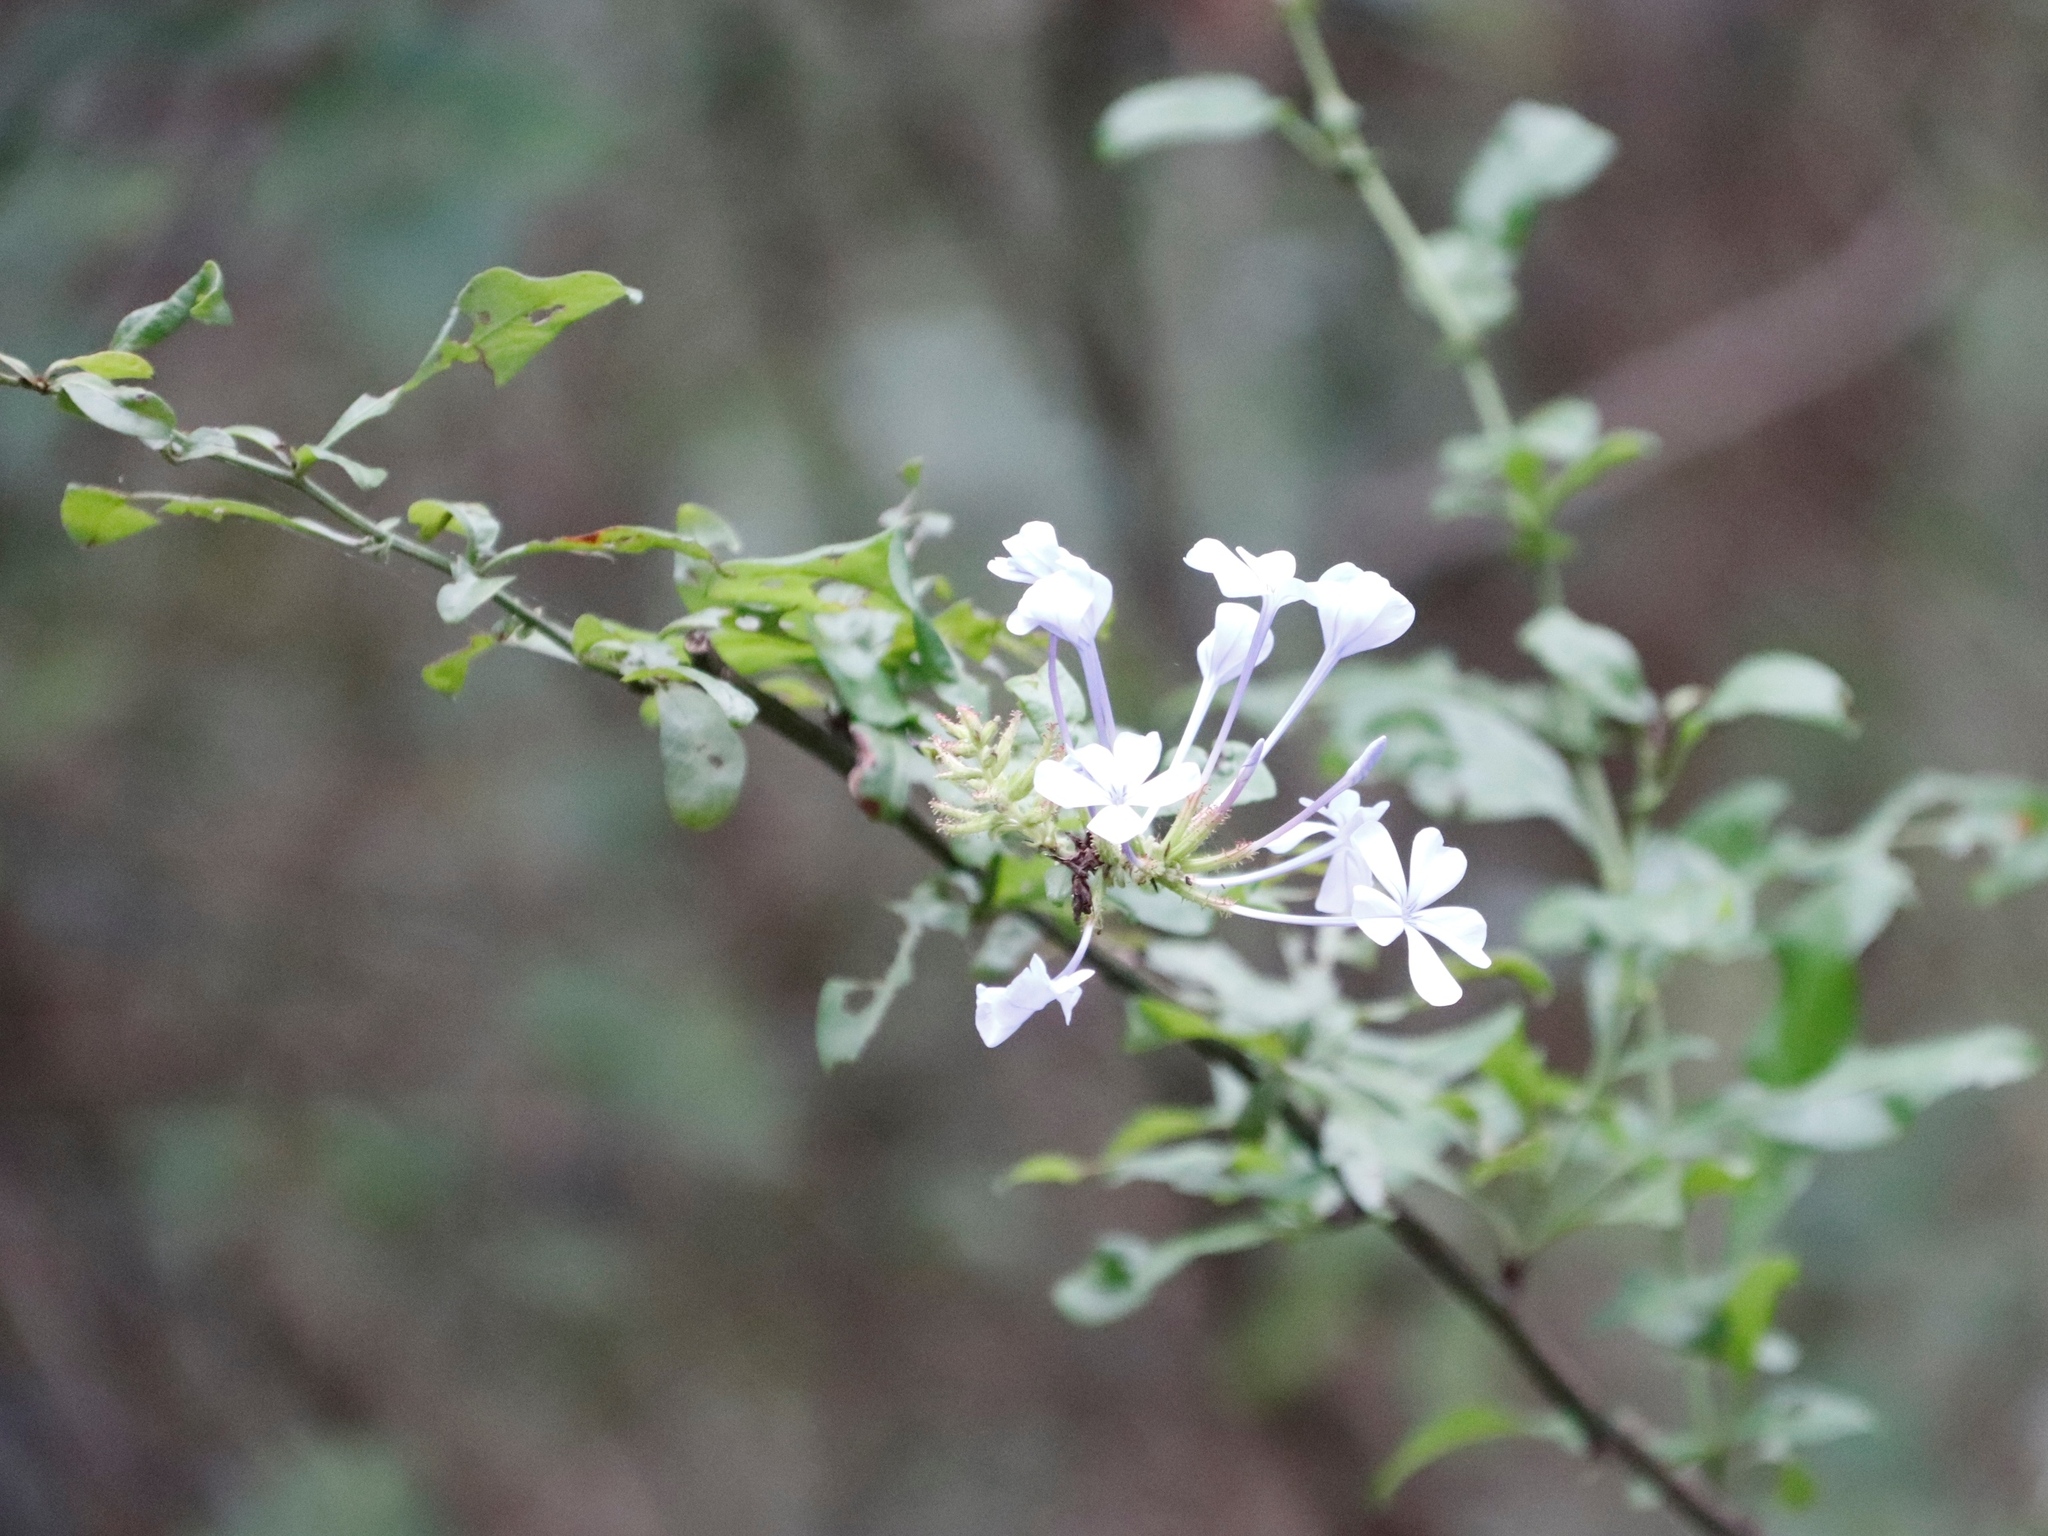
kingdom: Plantae
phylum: Tracheophyta
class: Magnoliopsida
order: Caryophyllales
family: Plumbaginaceae
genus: Plumbago
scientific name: Plumbago auriculata
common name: Cape leadwort
